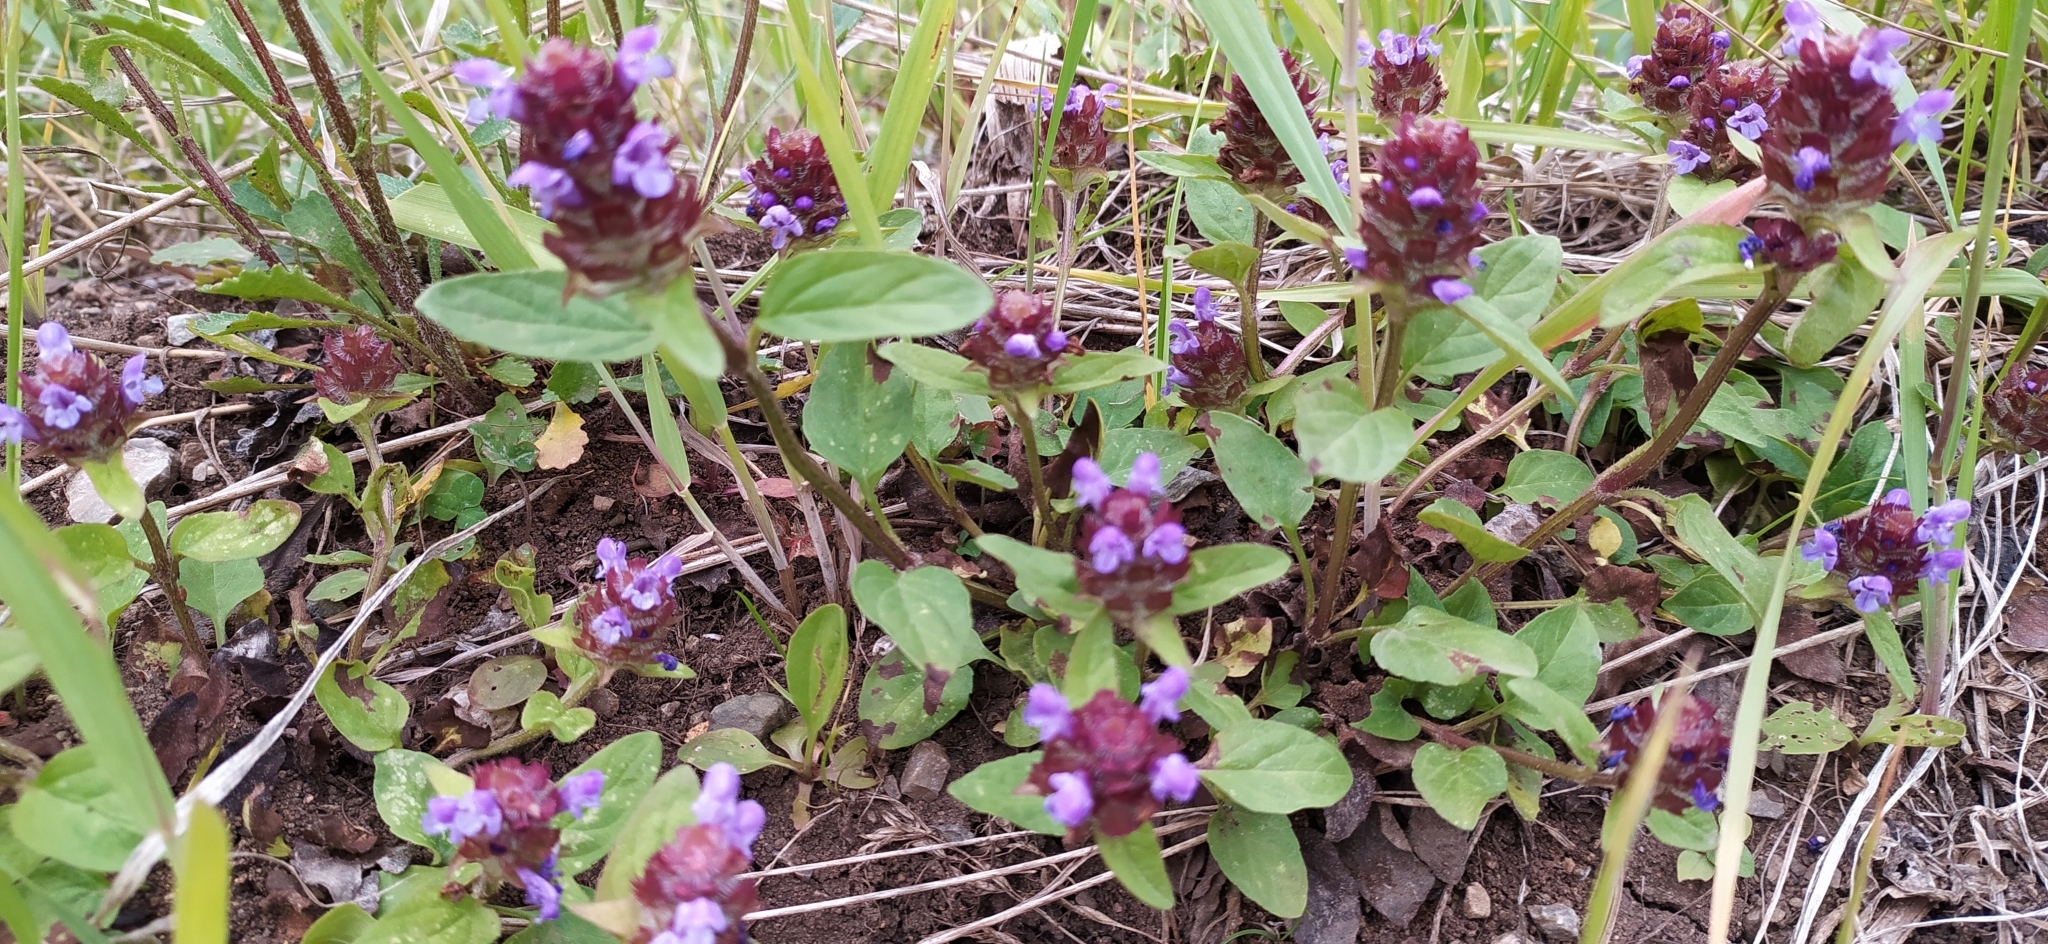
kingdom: Plantae
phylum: Tracheophyta
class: Magnoliopsida
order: Lamiales
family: Lamiaceae
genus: Prunella
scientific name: Prunella vulgaris
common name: Heal-all
